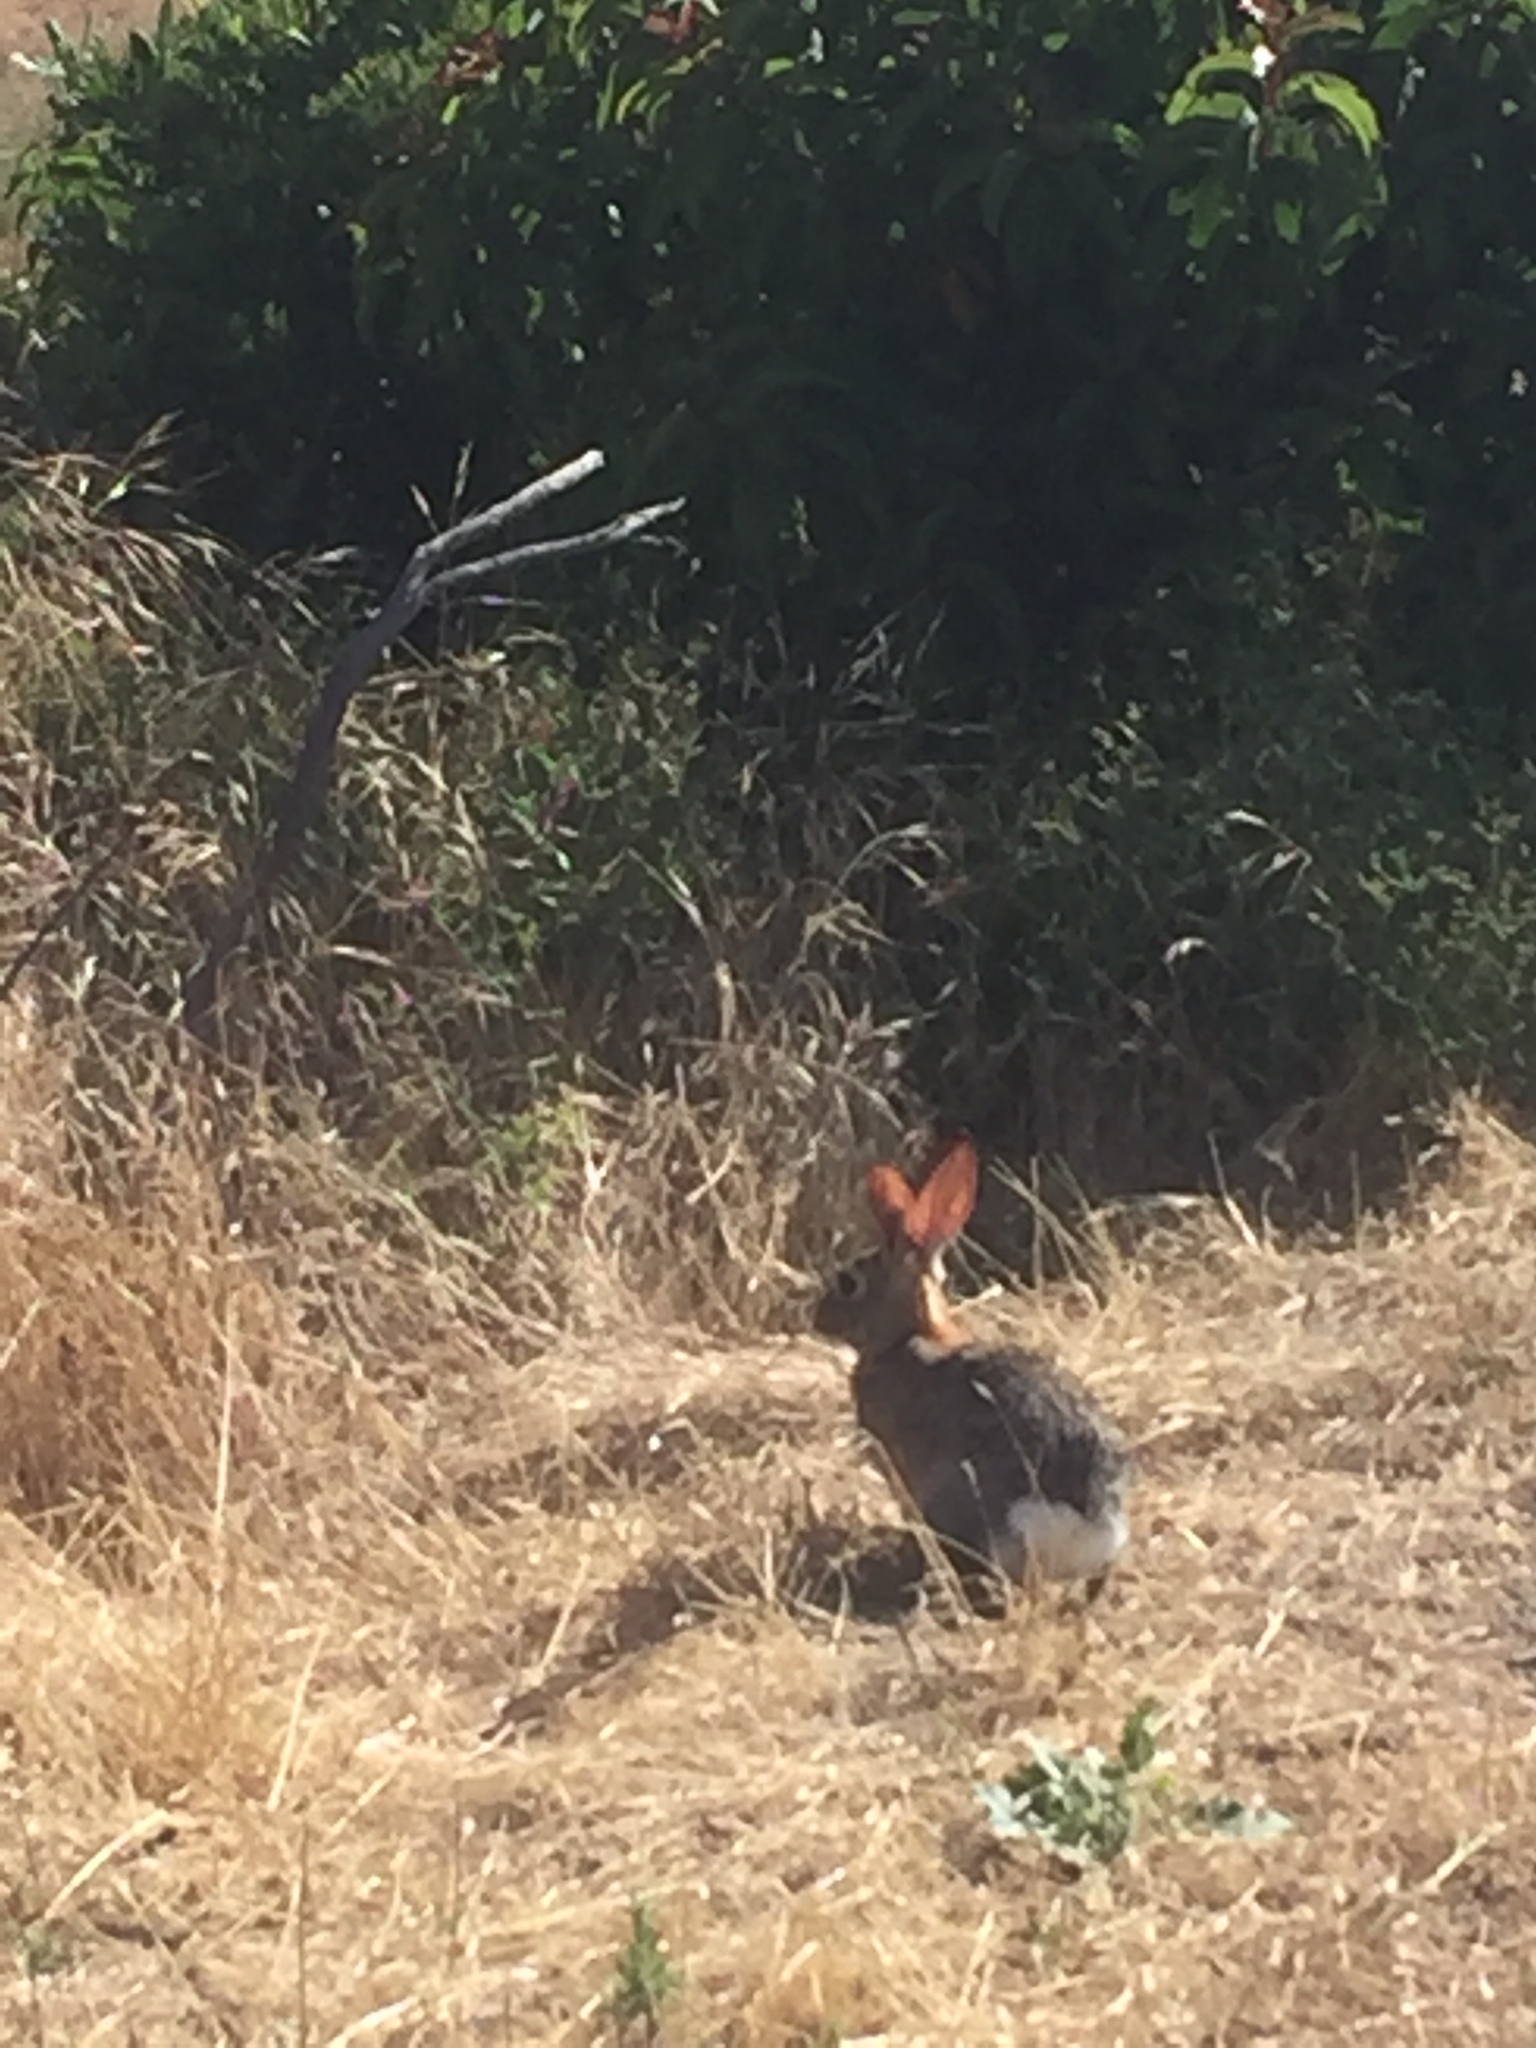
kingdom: Animalia
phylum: Chordata
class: Mammalia
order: Lagomorpha
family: Leporidae
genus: Sylvilagus
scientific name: Sylvilagus audubonii
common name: Desert cottontail
